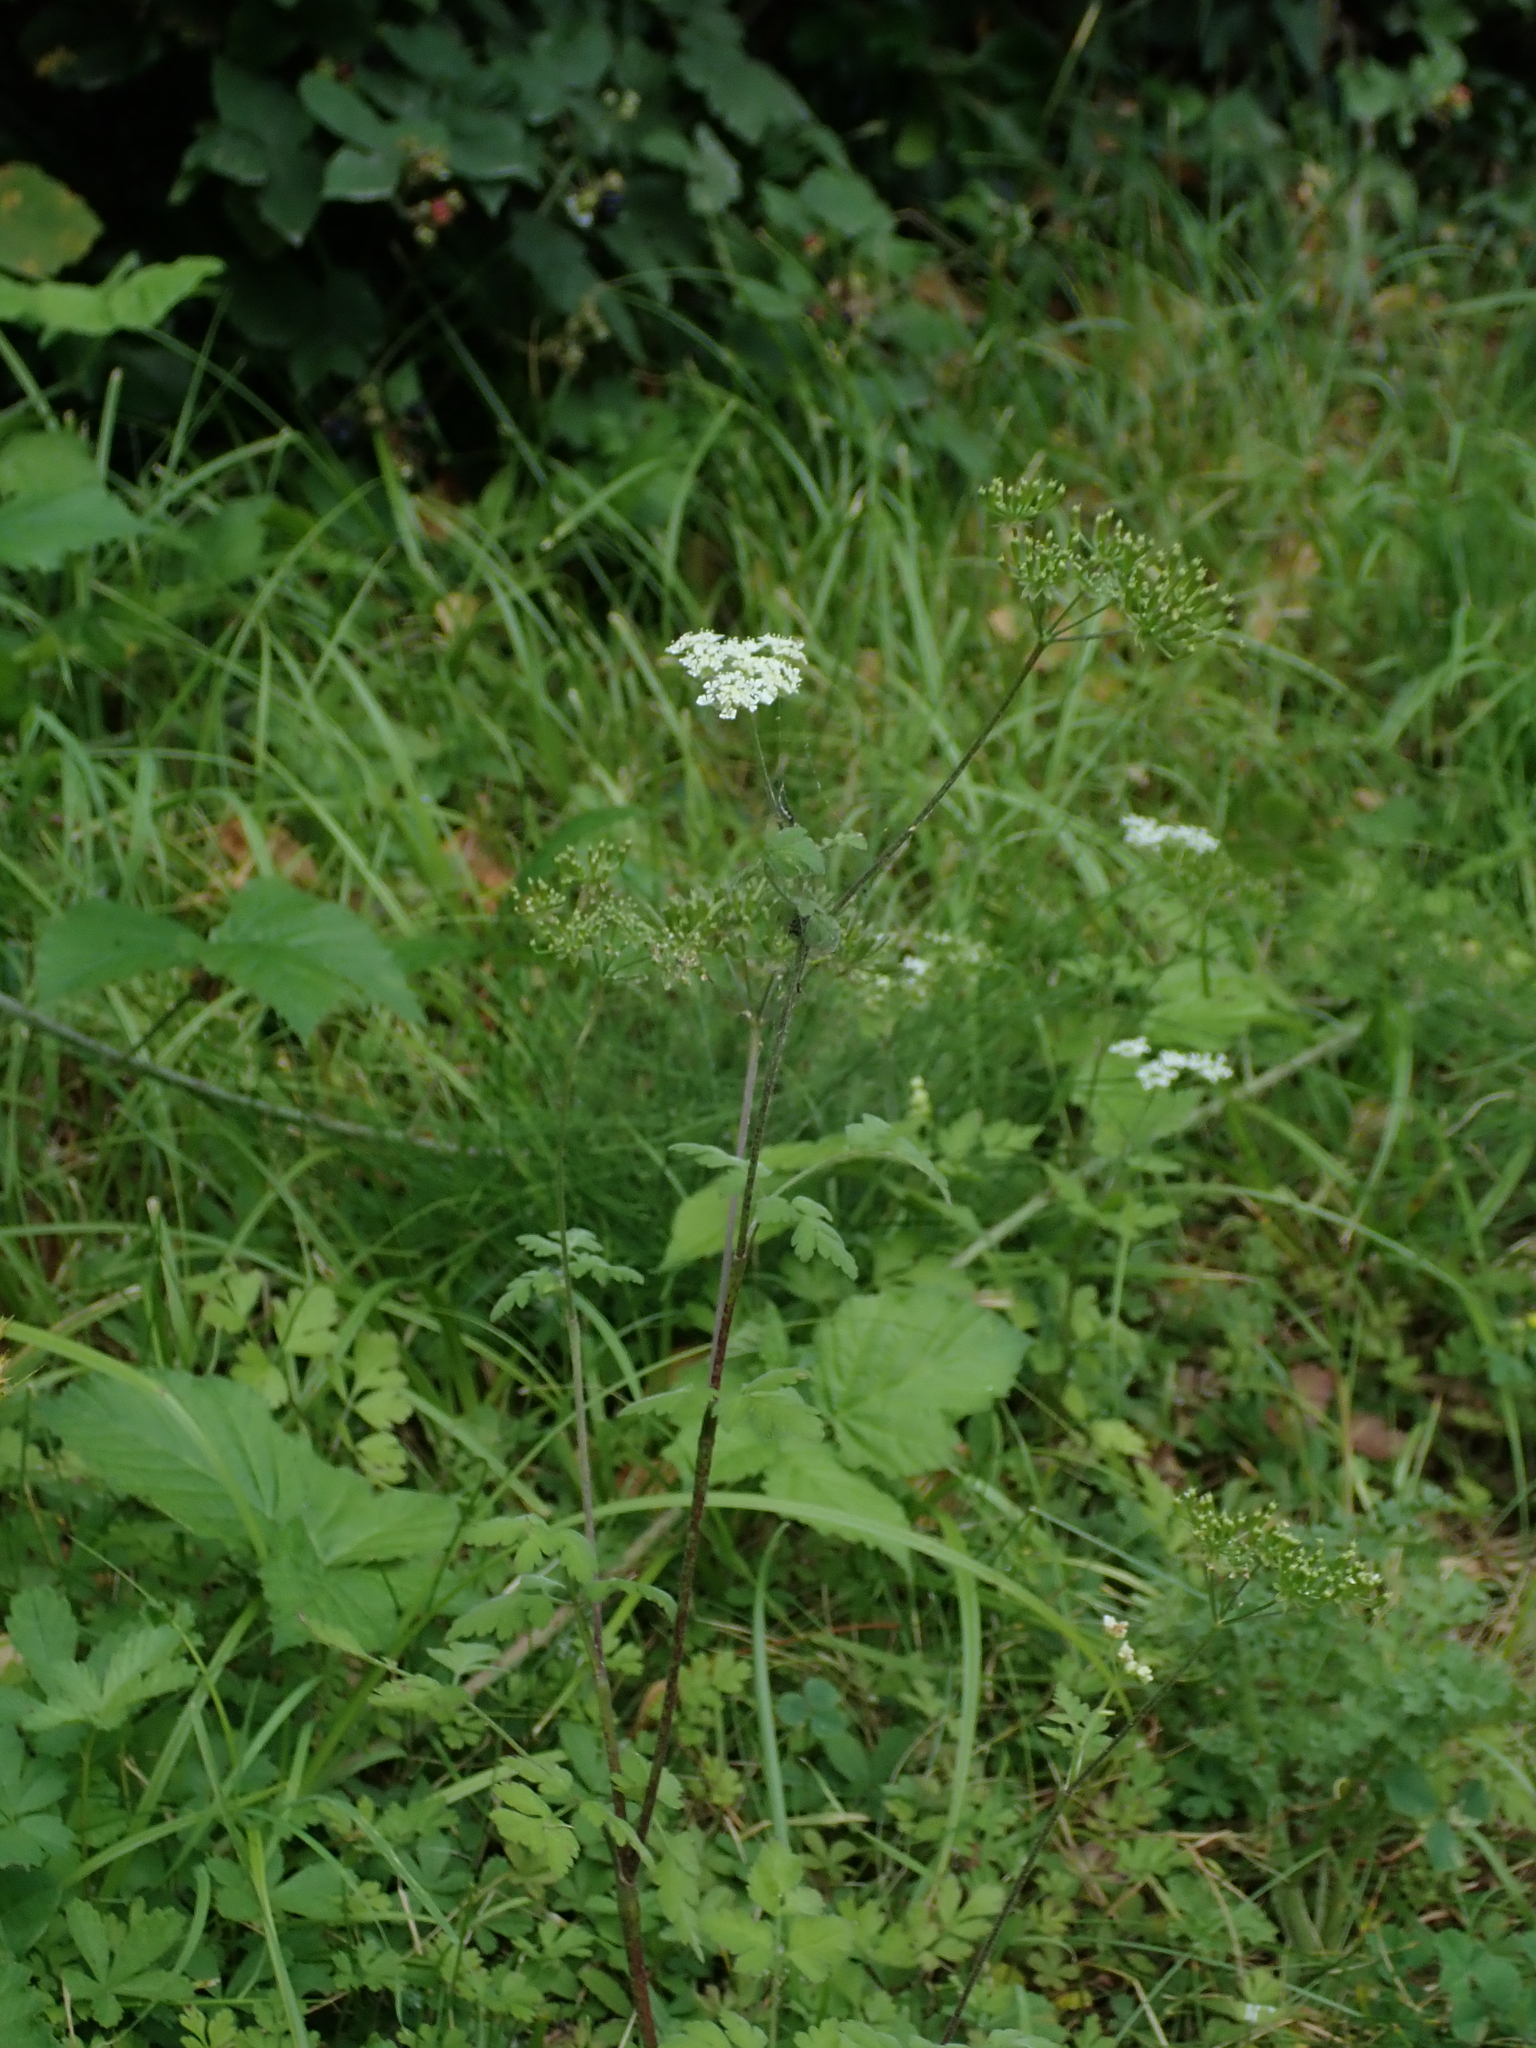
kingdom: Plantae
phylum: Tracheophyta
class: Magnoliopsida
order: Apiales
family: Apiaceae
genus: Chaerophyllum
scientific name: Chaerophyllum temulum
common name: Rough chervil
